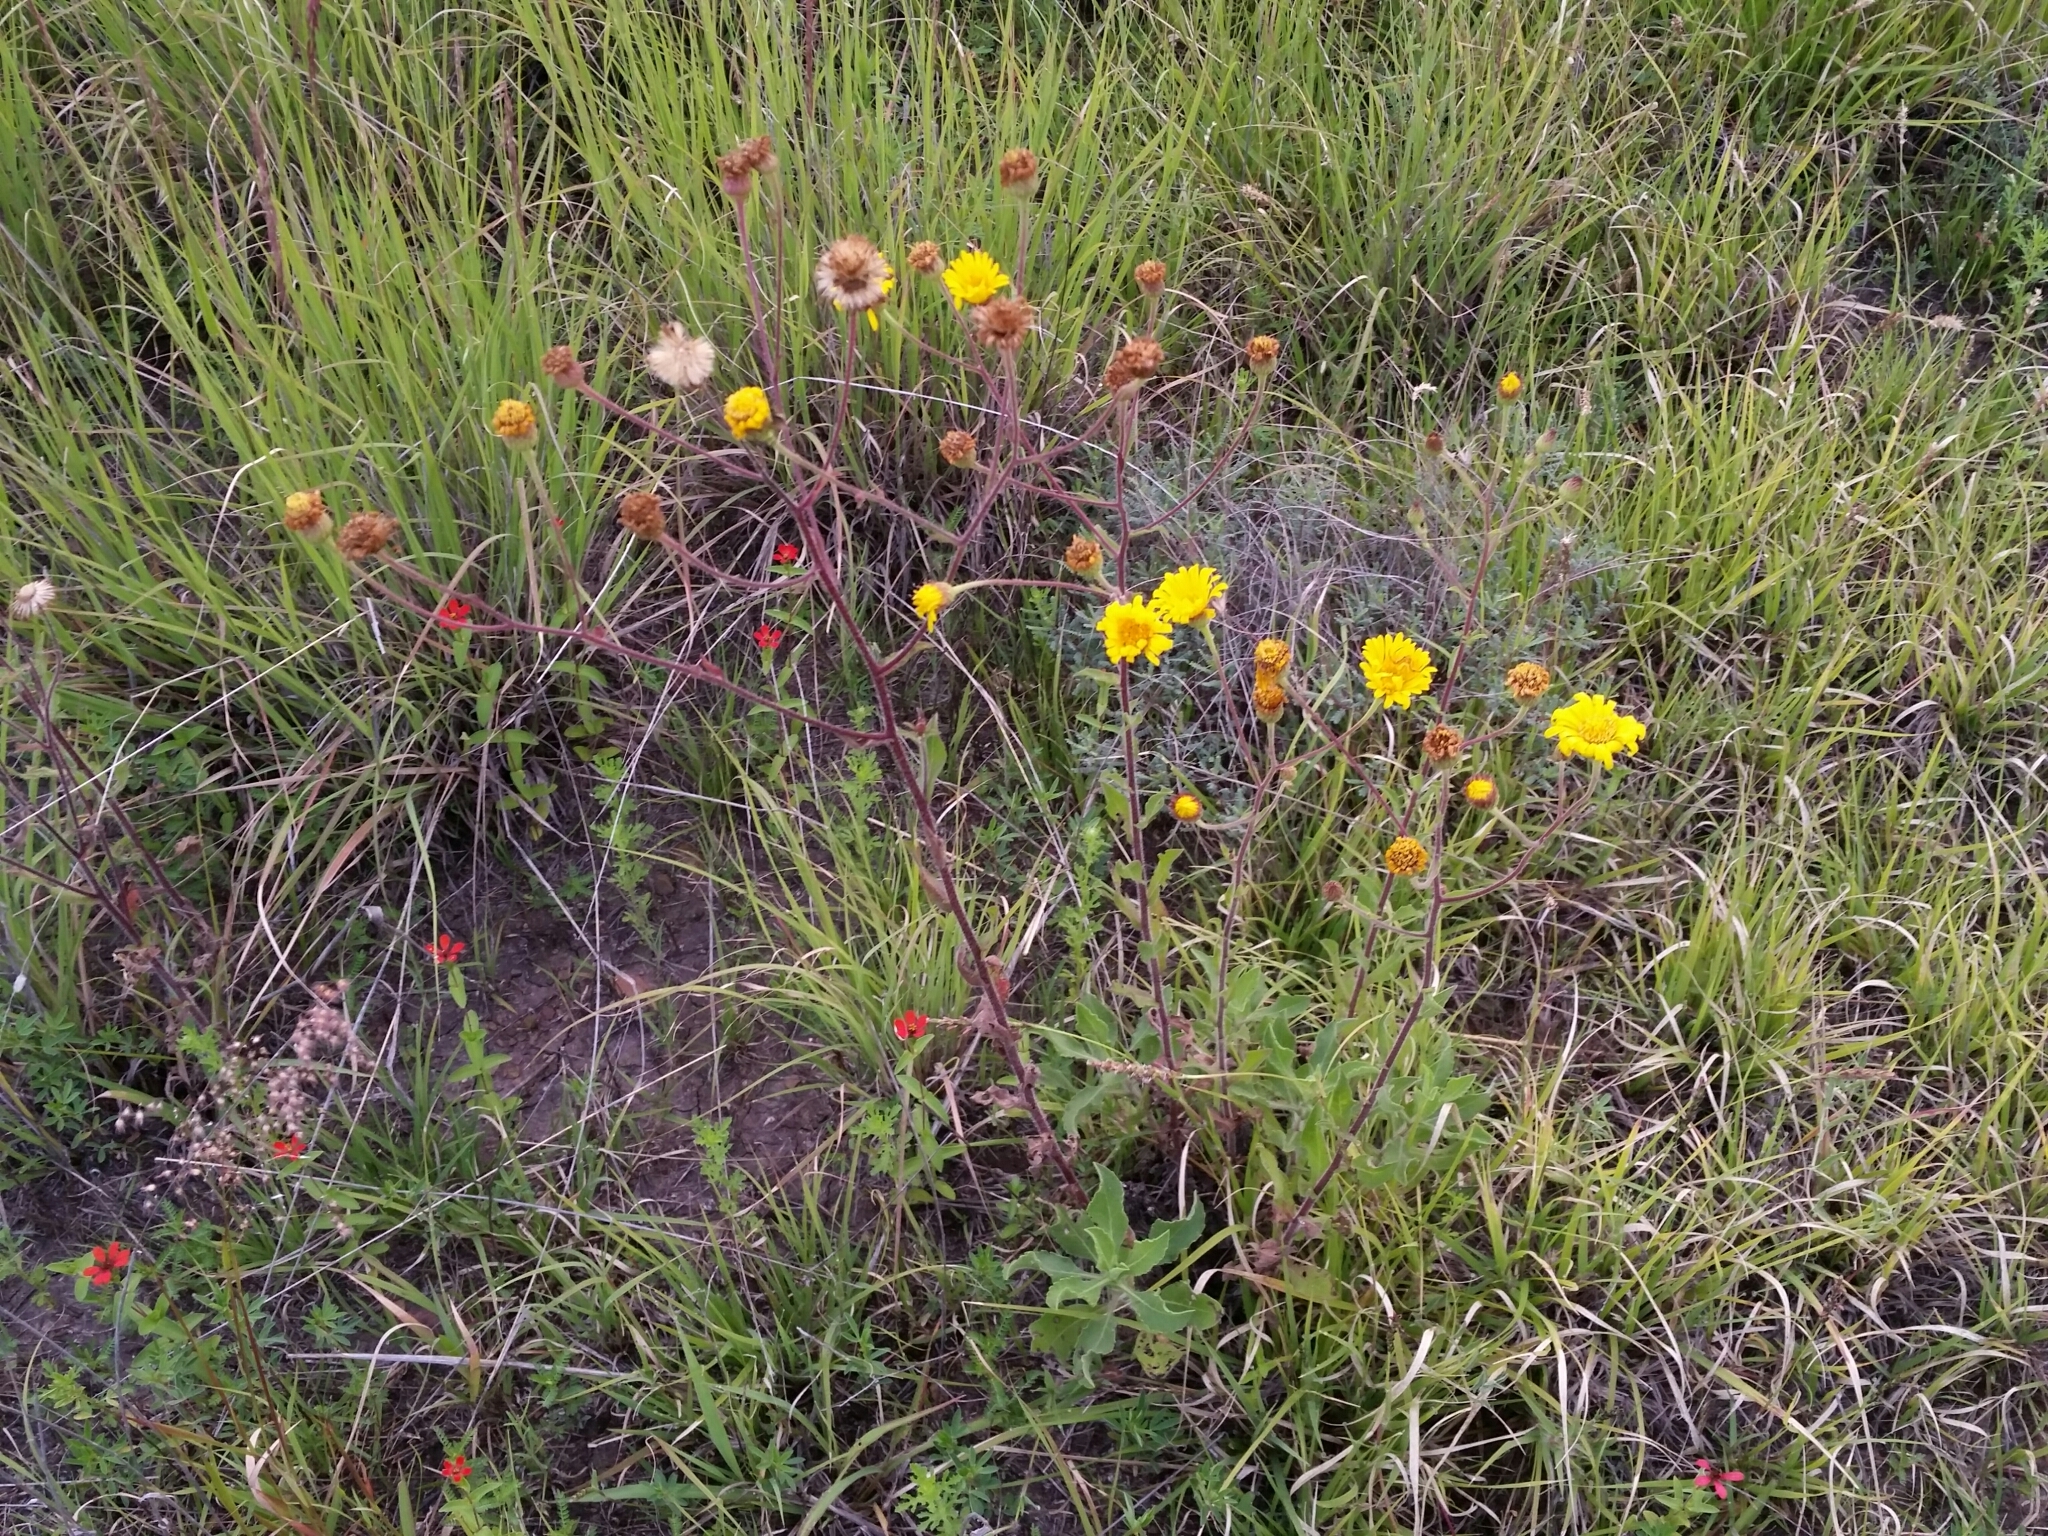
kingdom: Plantae
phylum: Tracheophyta
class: Magnoliopsida
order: Asterales
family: Asteraceae
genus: Heterotheca
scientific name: Heterotheca inuloides
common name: False arnica
